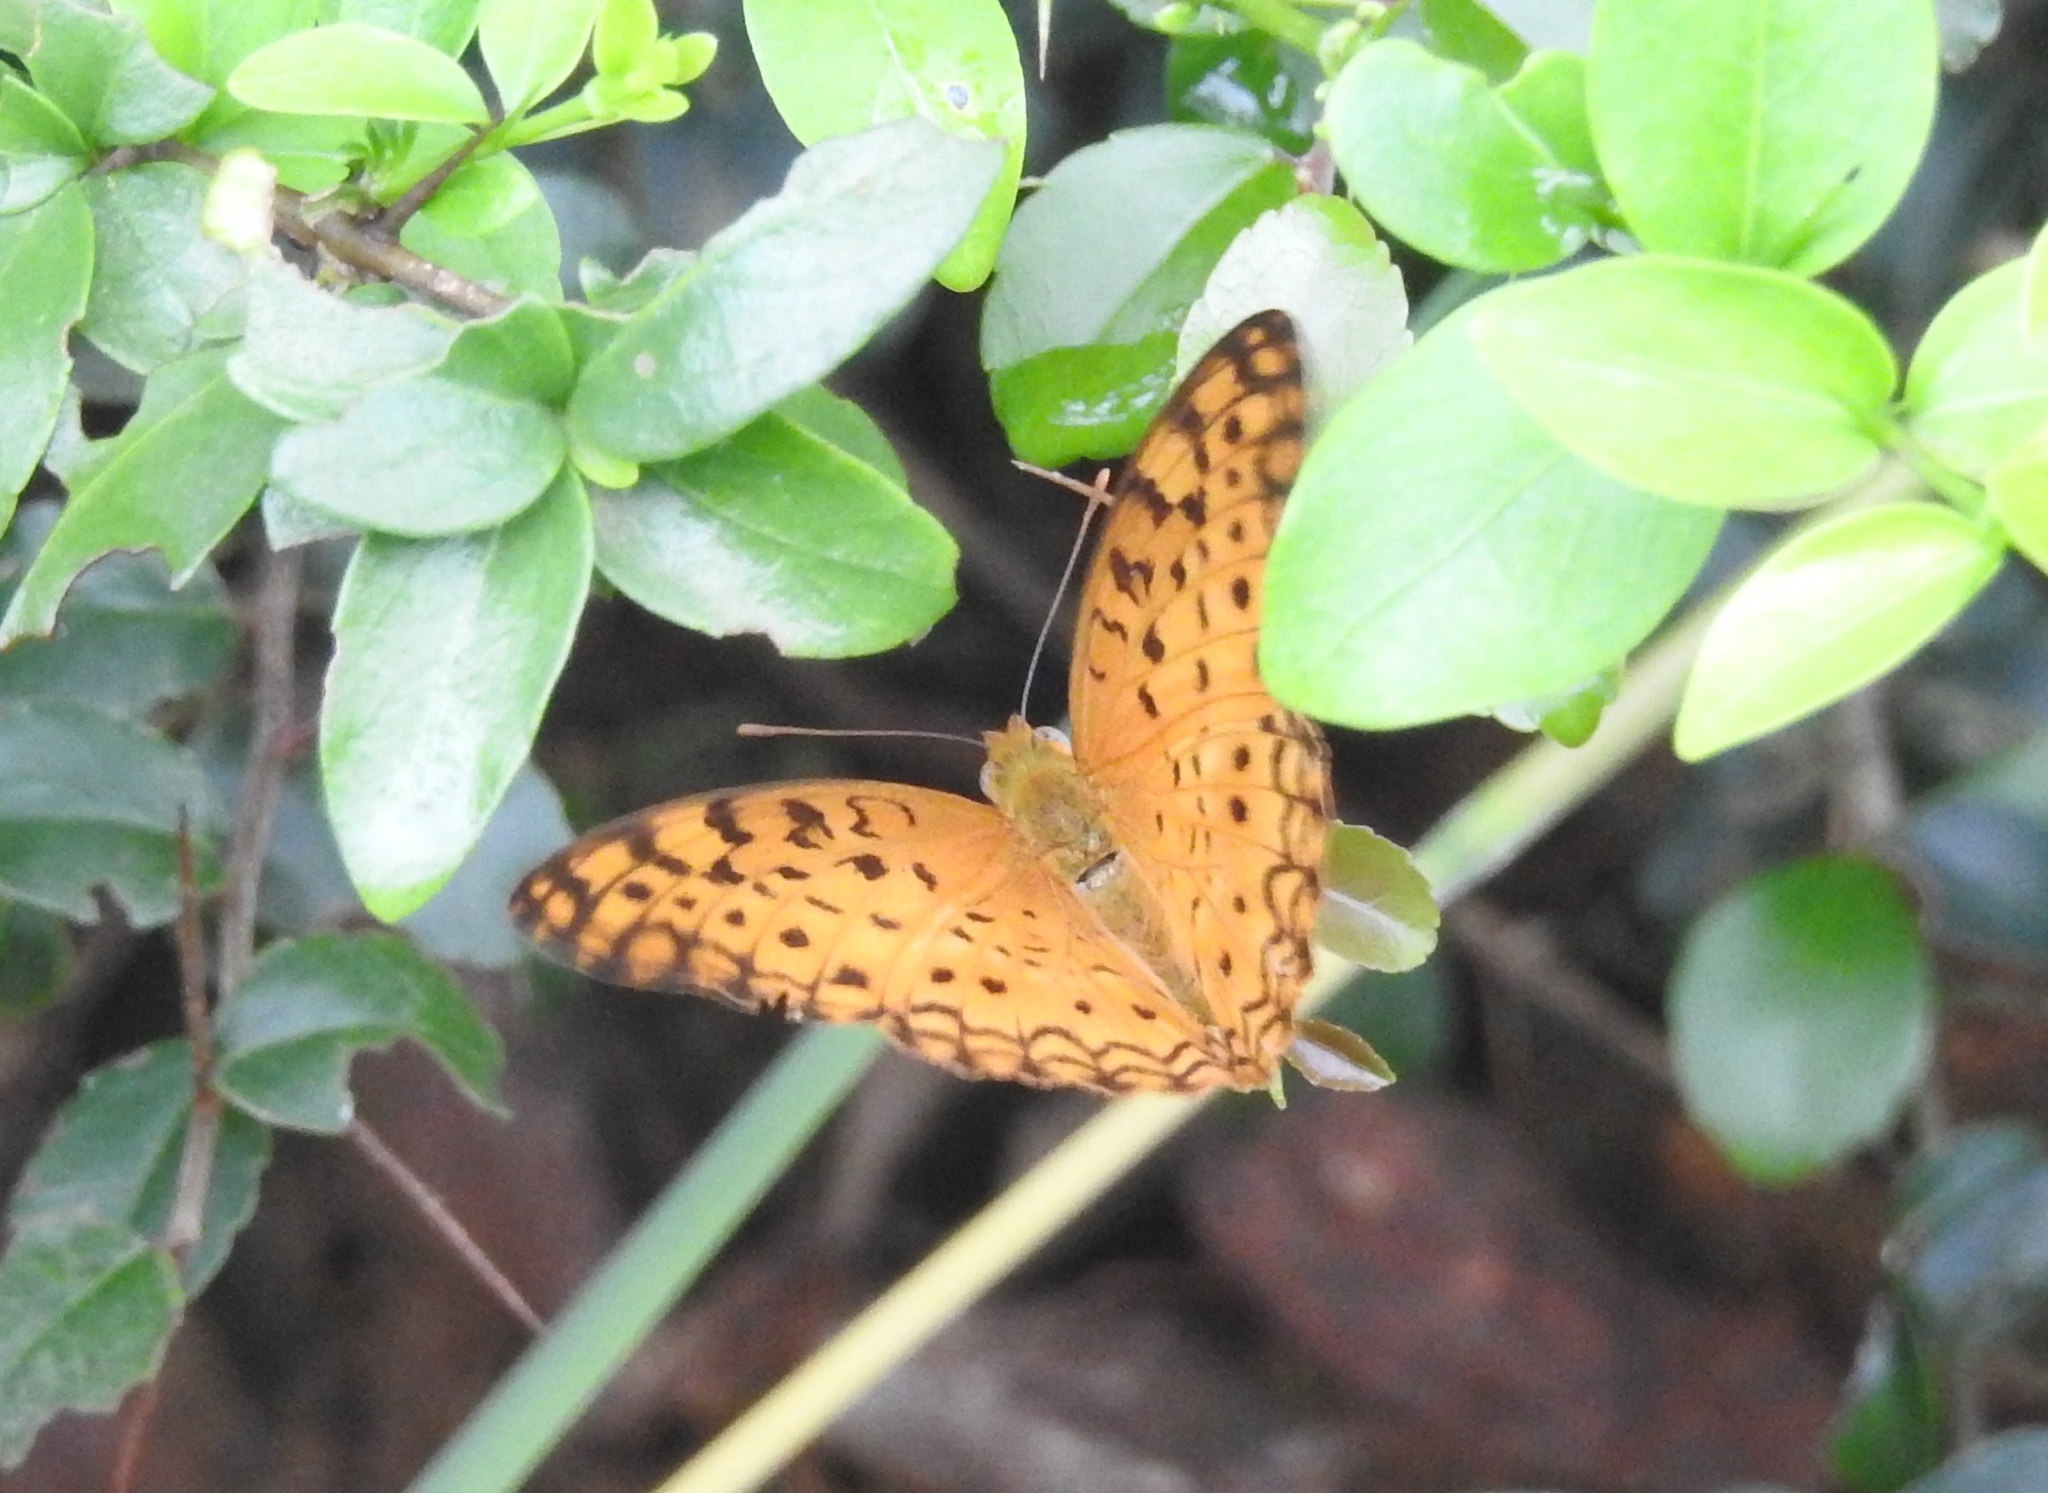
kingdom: Animalia
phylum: Arthropoda
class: Insecta
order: Lepidoptera
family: Nymphalidae
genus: Phalanta
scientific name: Phalanta phalantha
